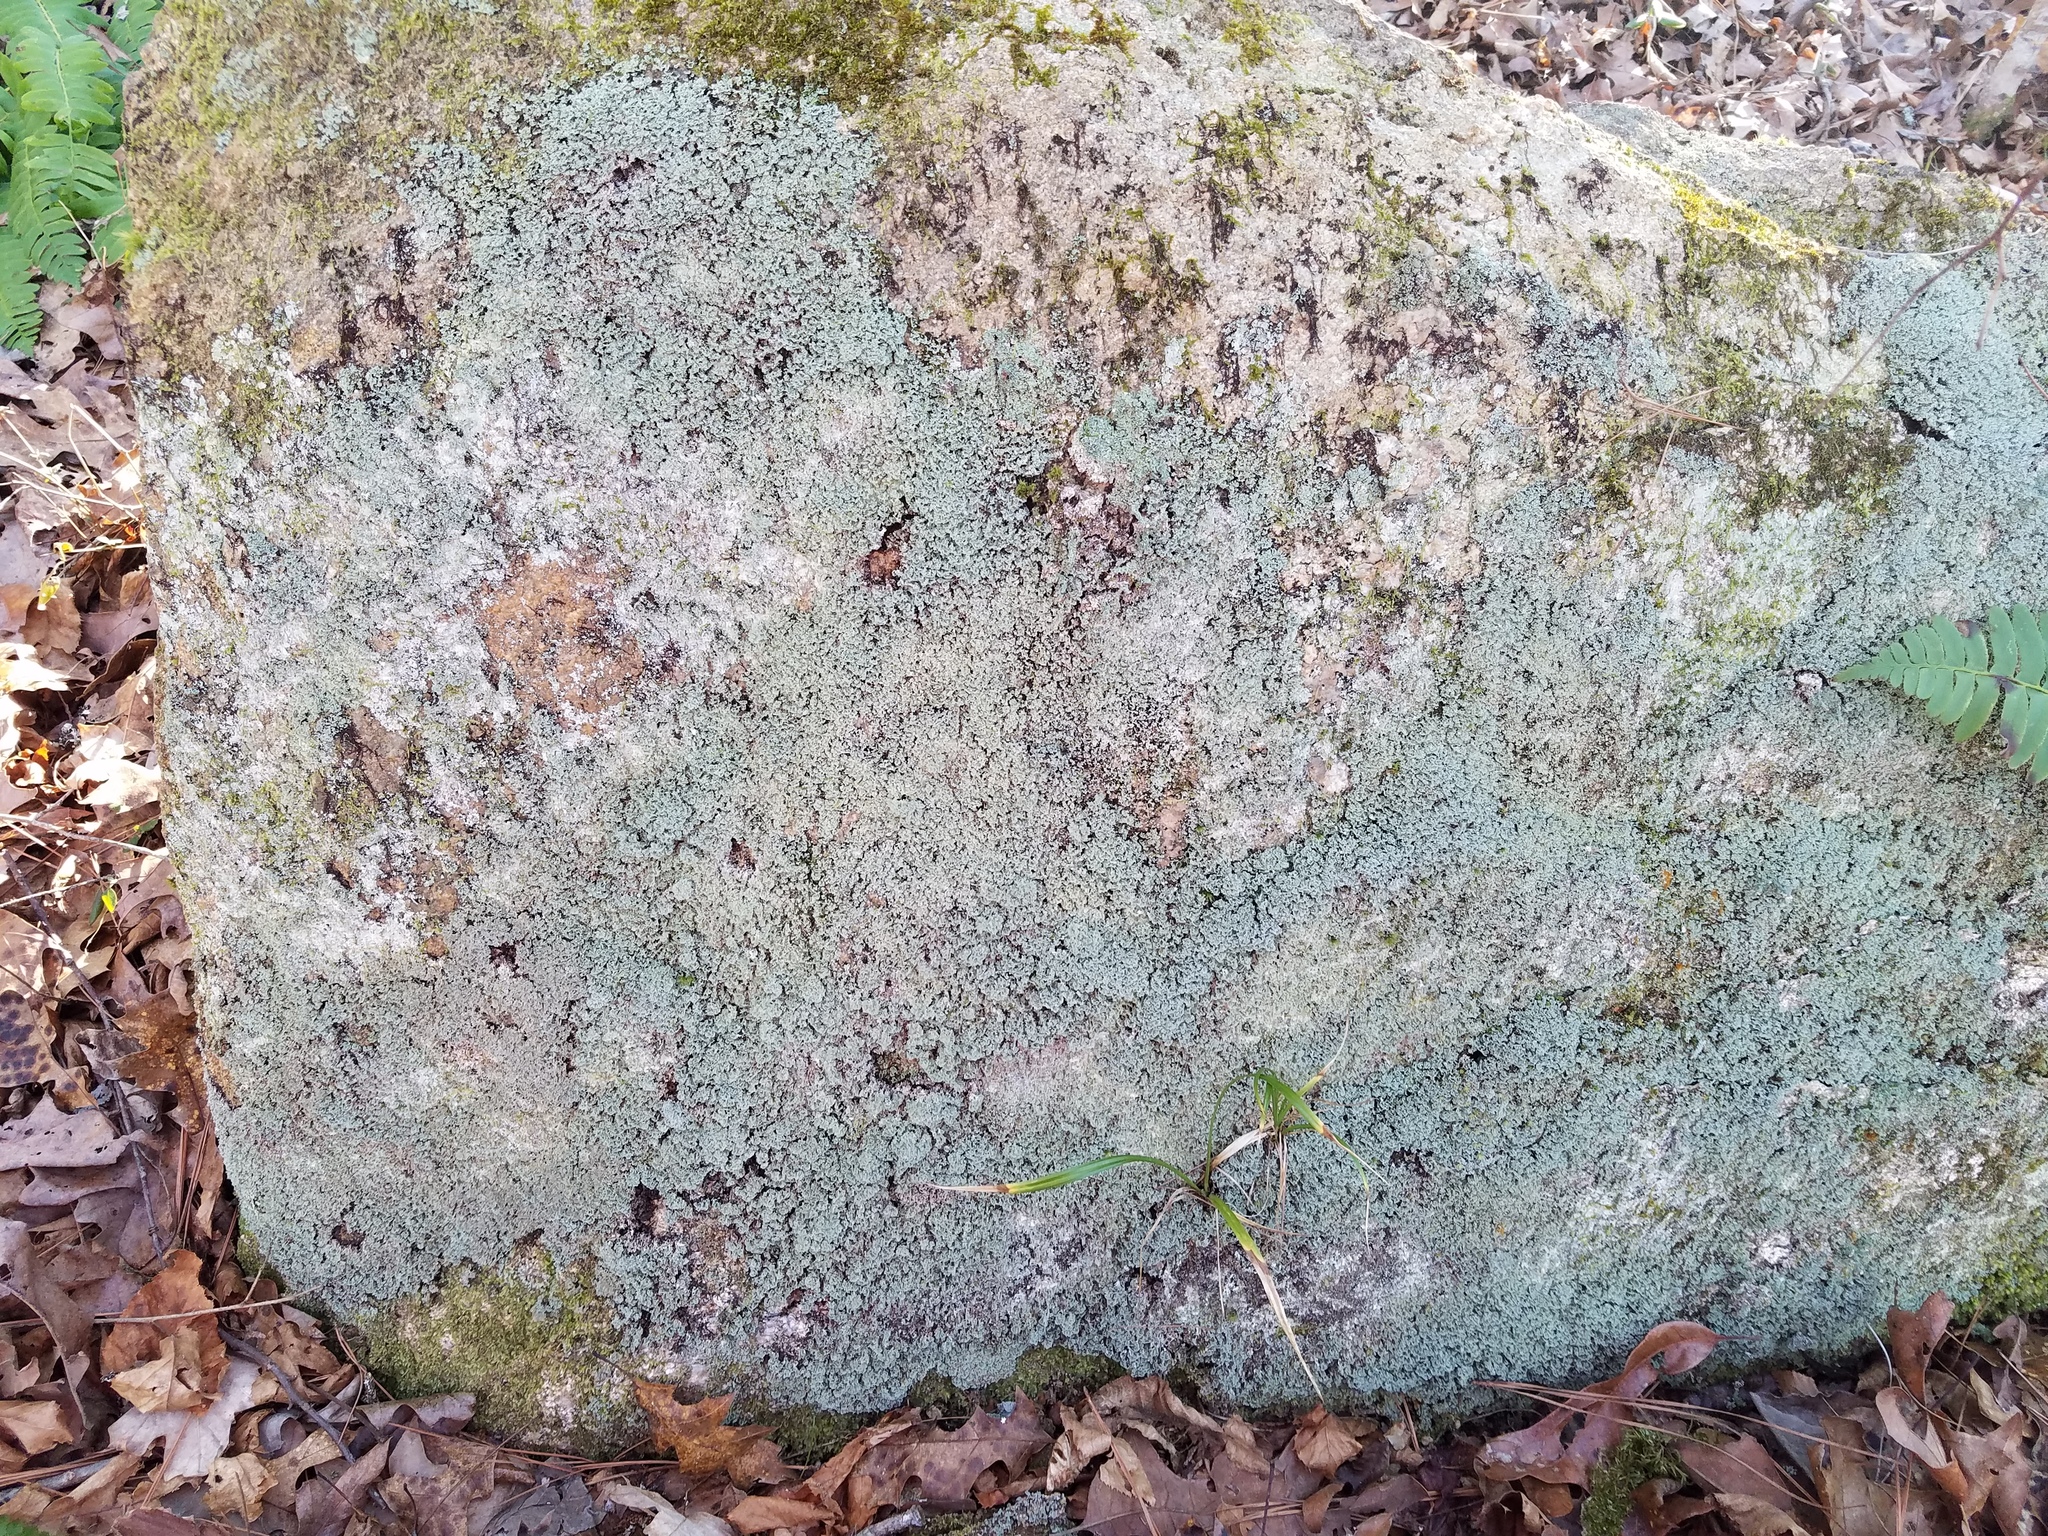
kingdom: Fungi
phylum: Ascomycota
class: Lecanoromycetes
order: Lecanorales
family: Cladoniaceae
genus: Cladonia
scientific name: Cladonia caespiticia
